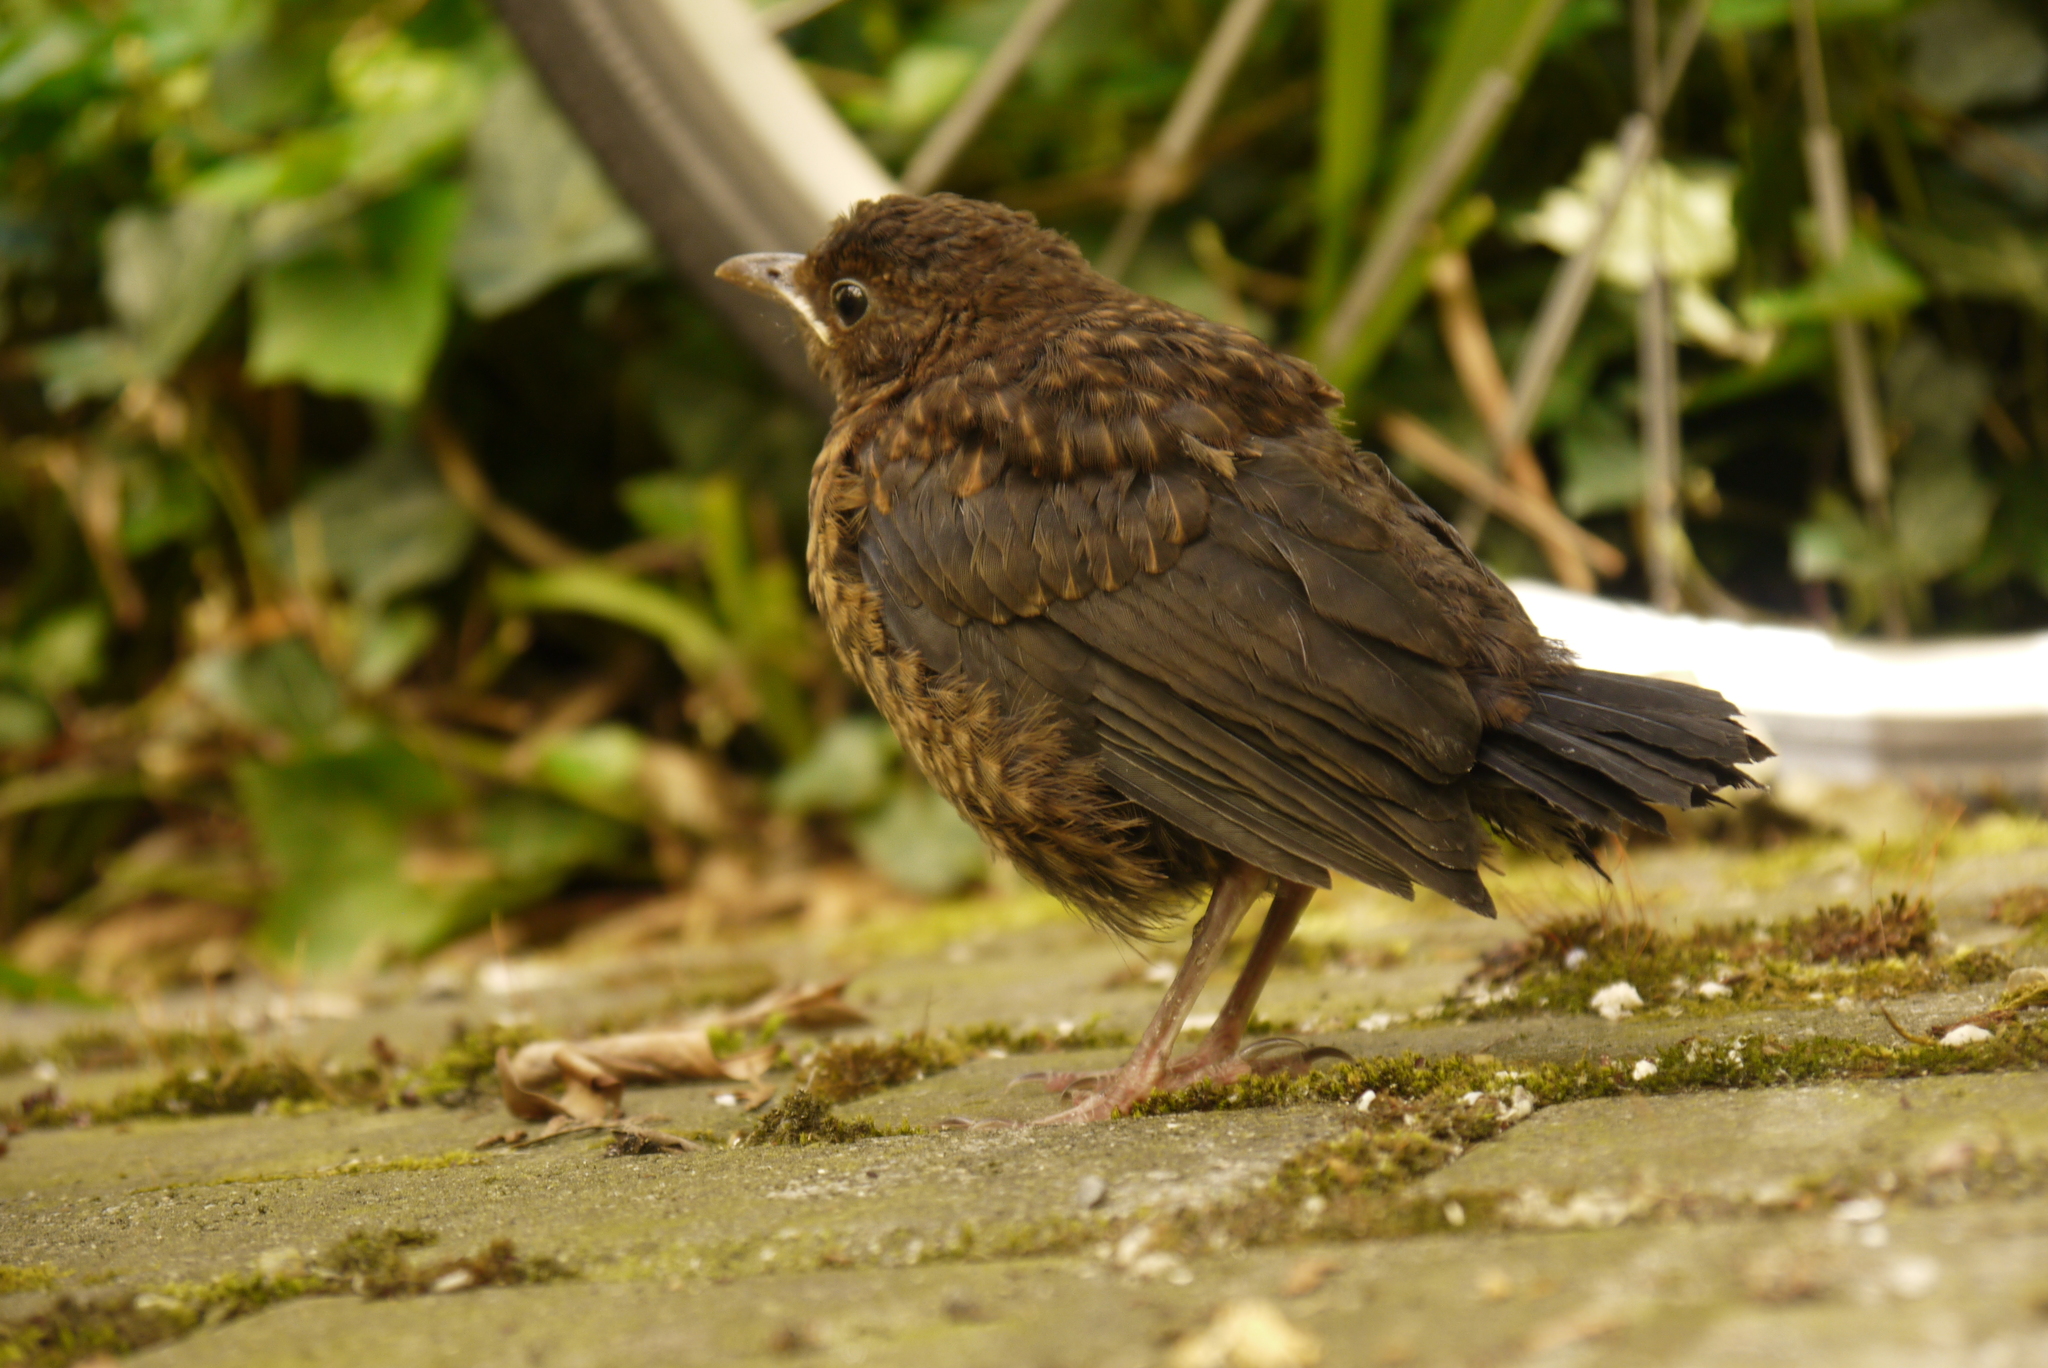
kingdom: Animalia
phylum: Chordata
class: Aves
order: Passeriformes
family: Turdidae
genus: Turdus
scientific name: Turdus merula
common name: Common blackbird
